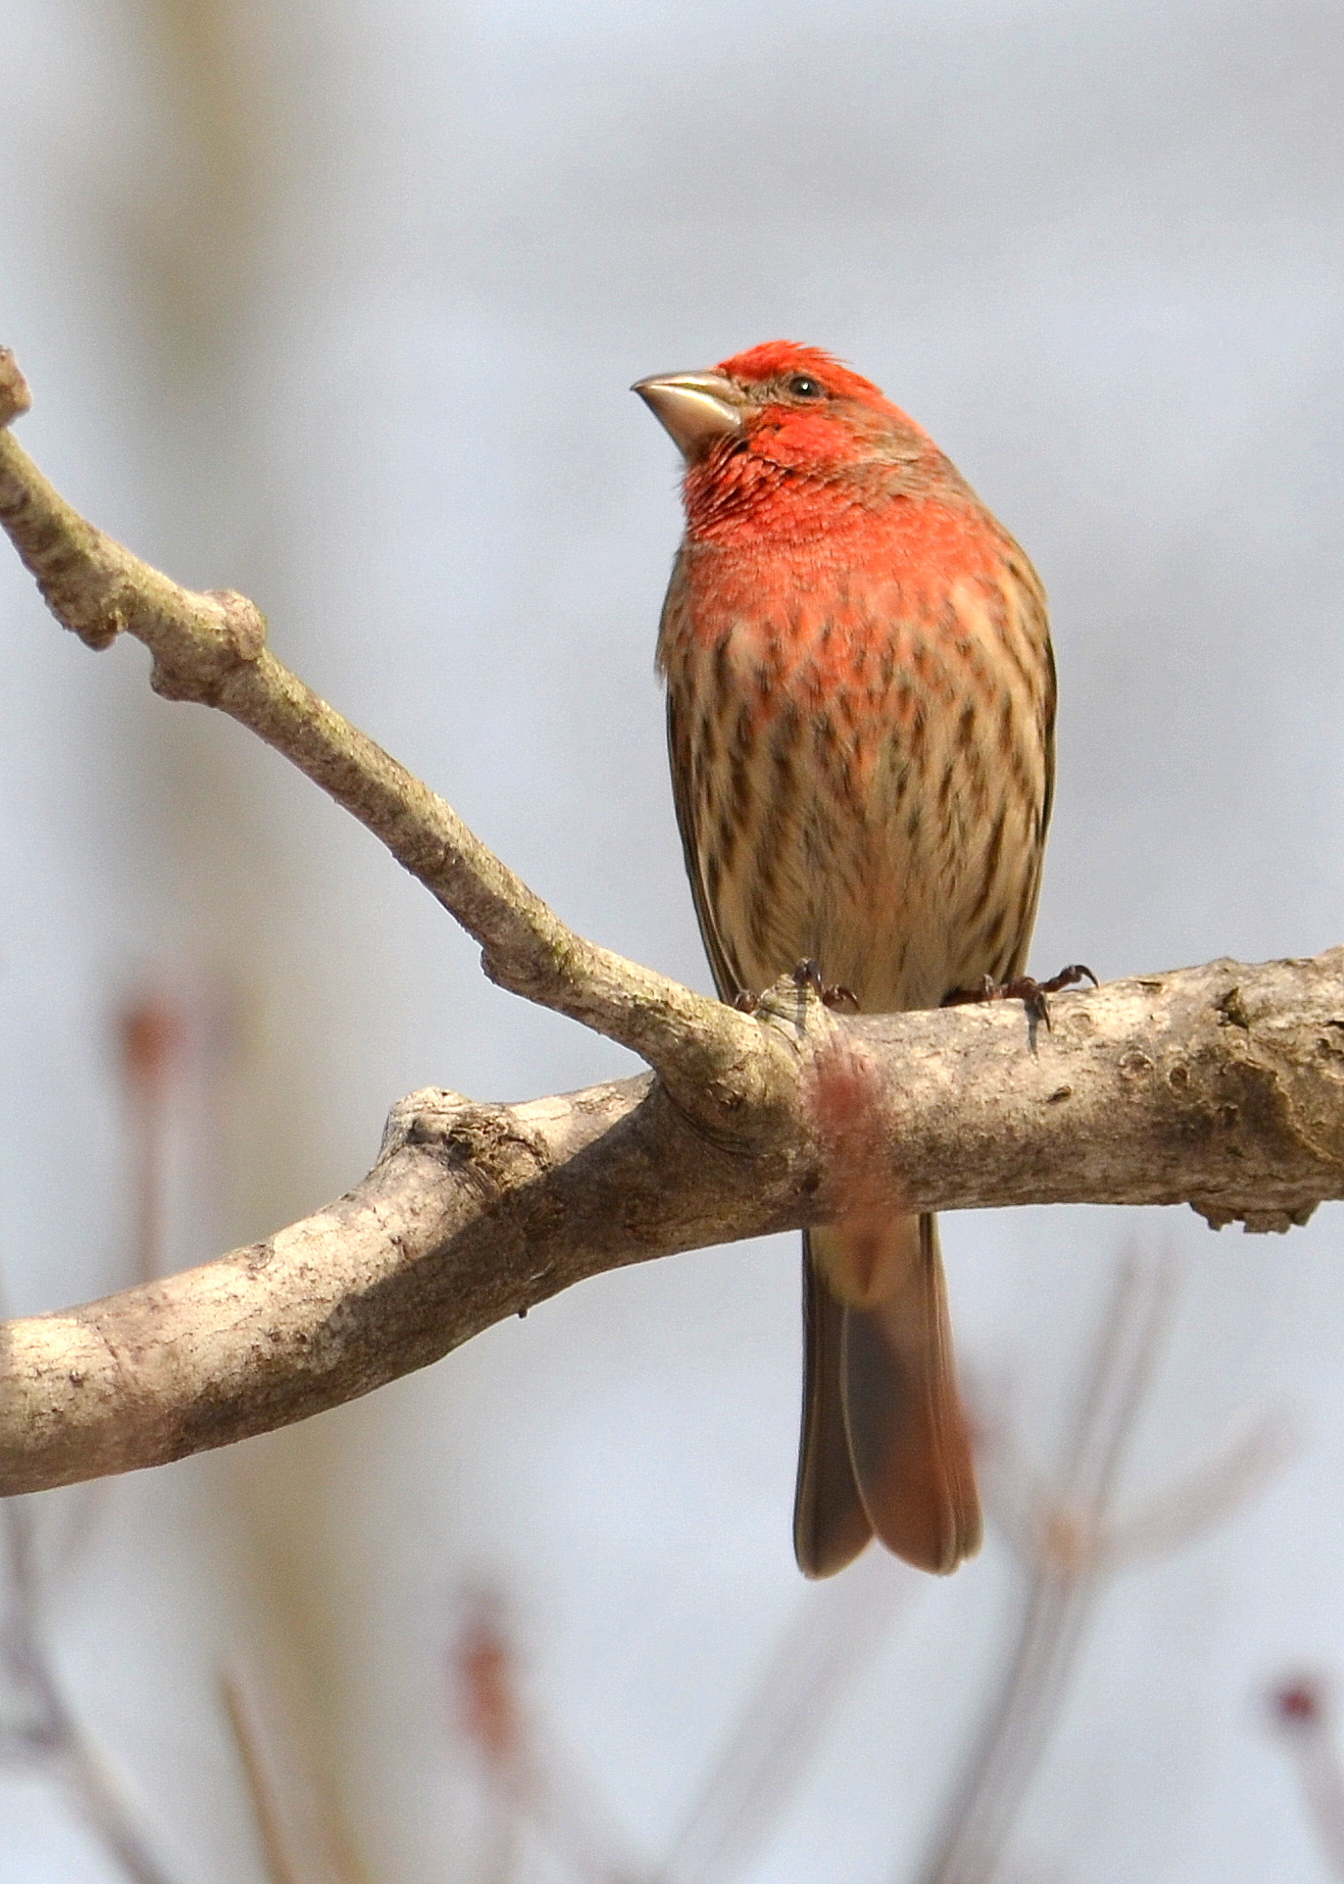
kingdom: Animalia
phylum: Chordata
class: Aves
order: Passeriformes
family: Fringillidae
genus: Haemorhous
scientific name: Haemorhous mexicanus
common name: House finch
